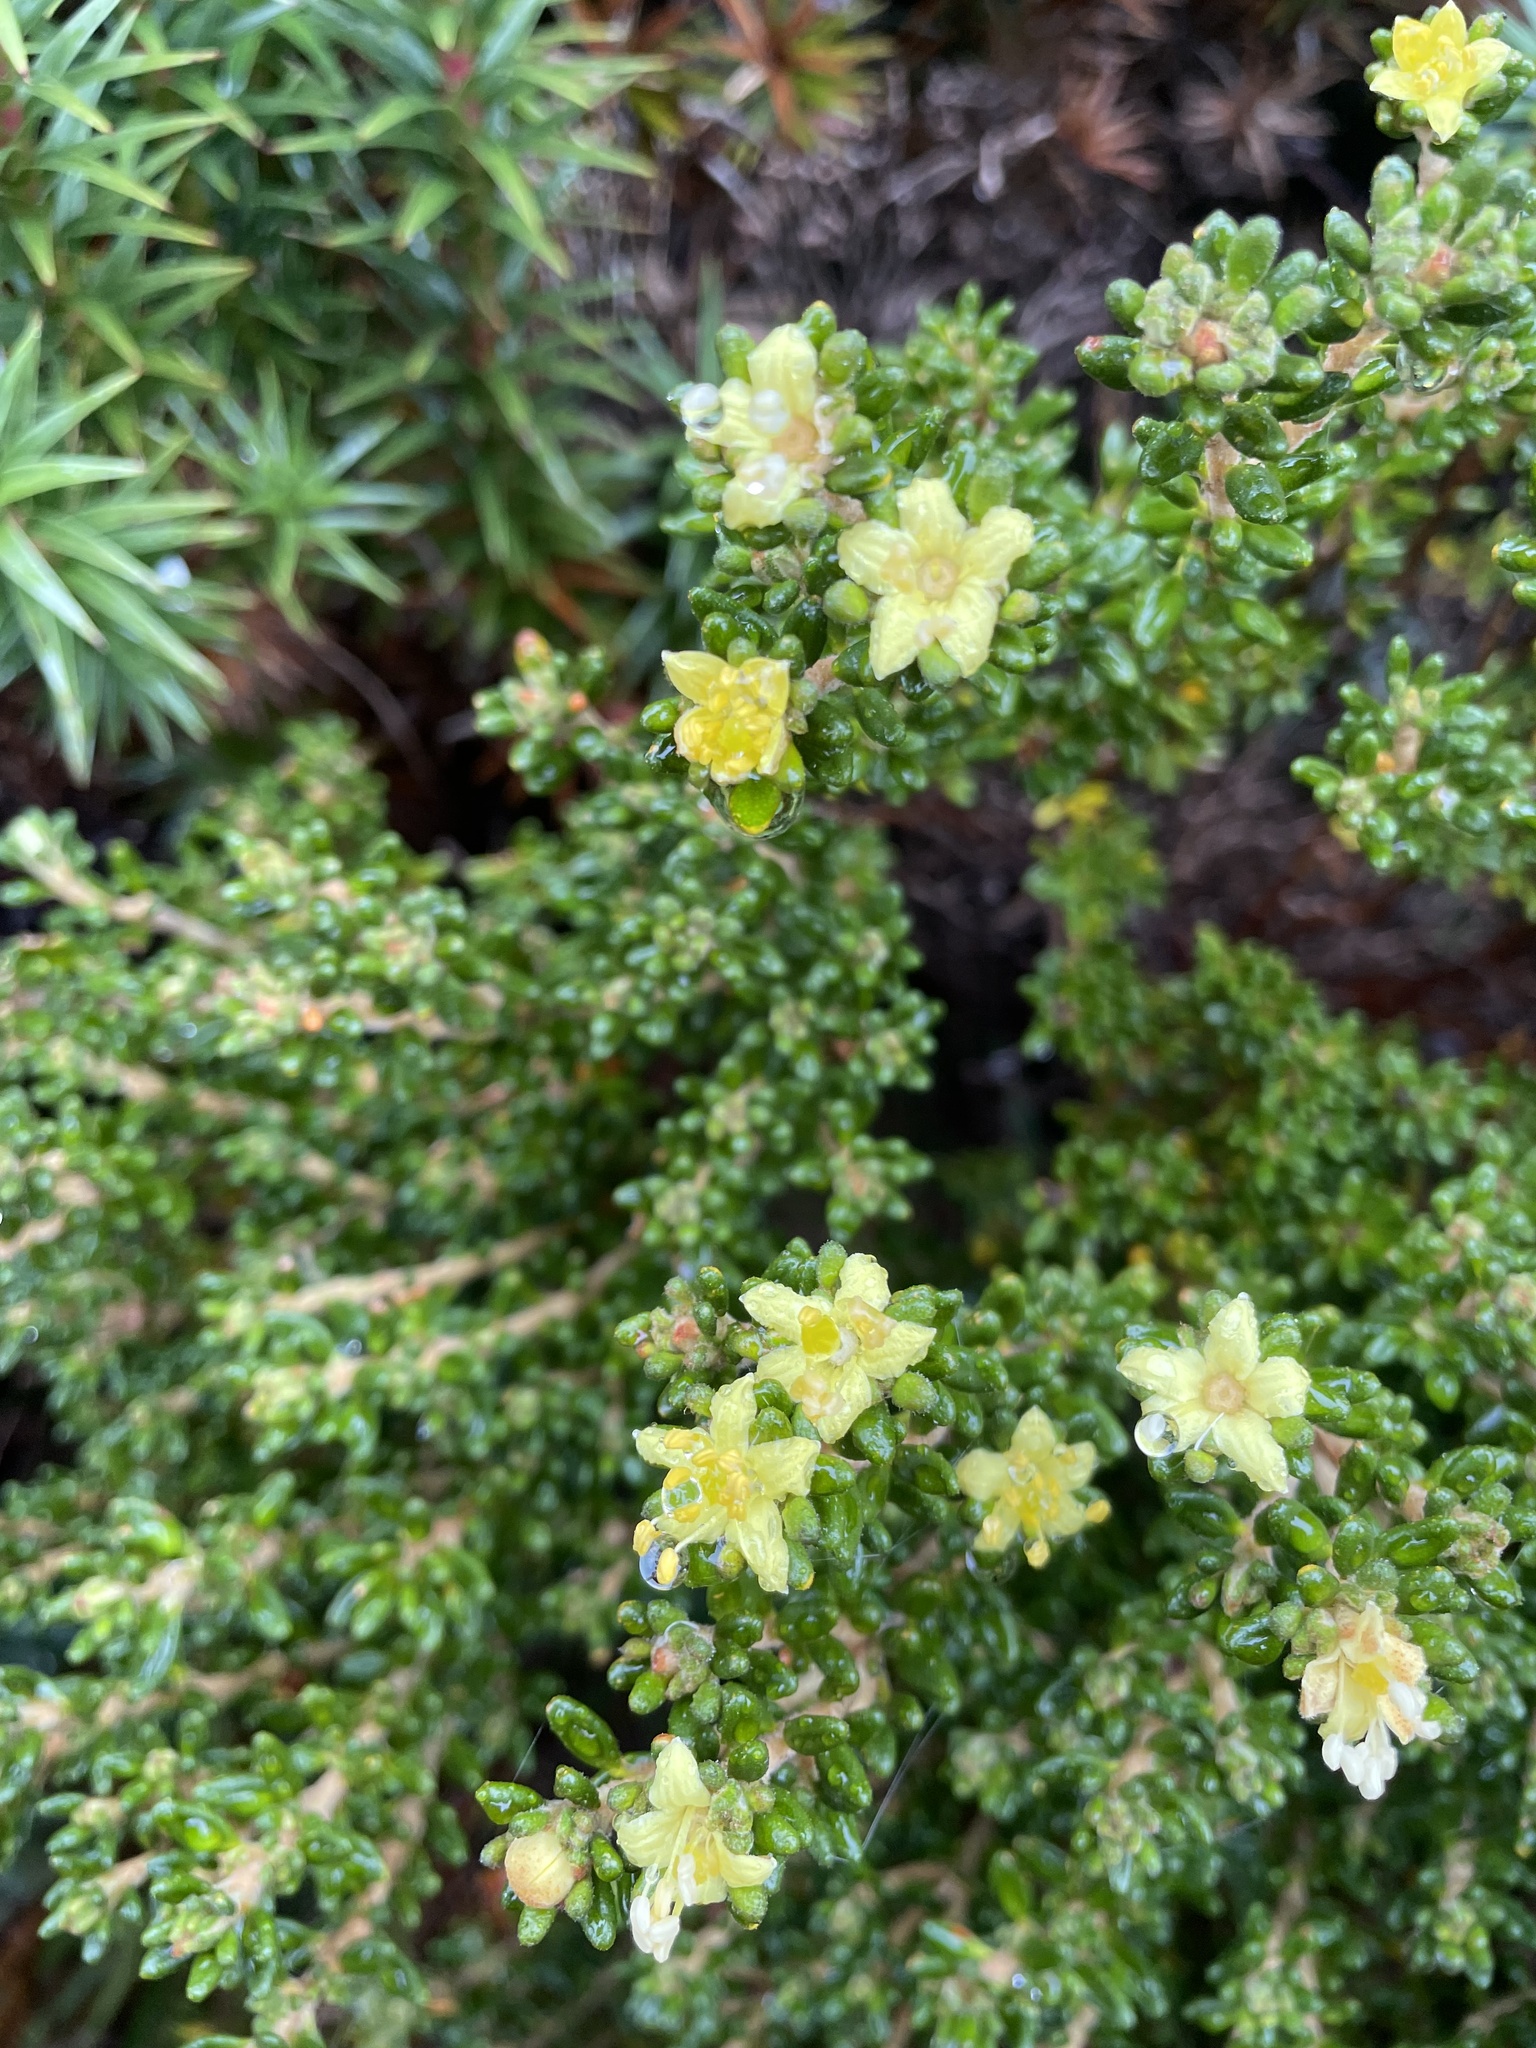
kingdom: Plantae
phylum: Tracheophyta
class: Magnoliopsida
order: Sapindales
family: Rutaceae
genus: Asterolasia
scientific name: Asterolasia trymalioides
